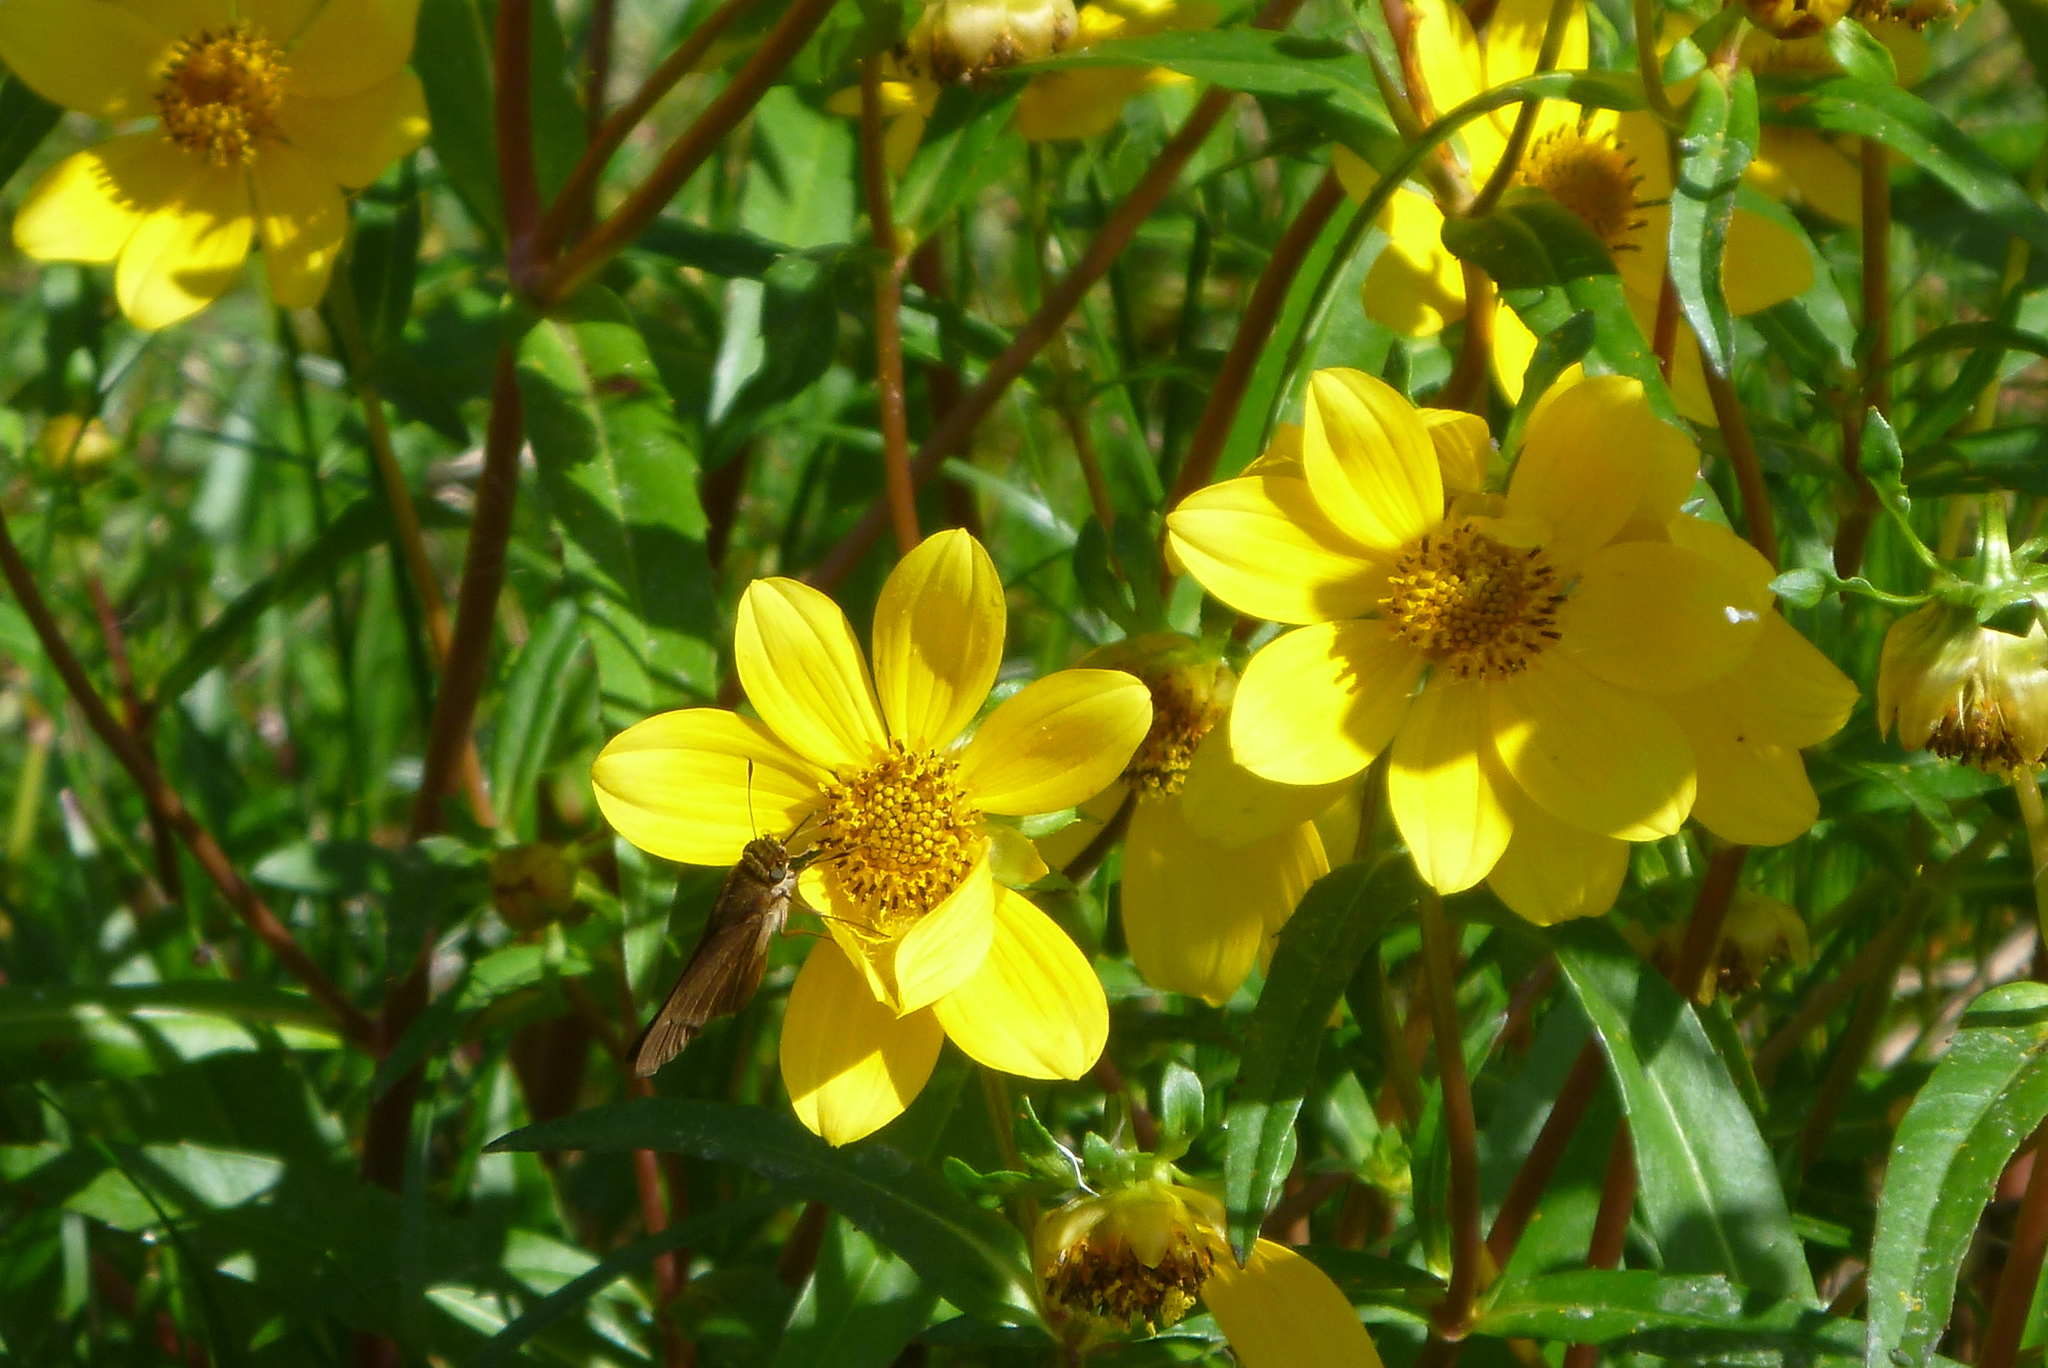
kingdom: Animalia
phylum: Arthropoda
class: Insecta
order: Lepidoptera
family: Hesperiidae
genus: Panoquina
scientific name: Panoquina ocola
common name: Ocola skipper
